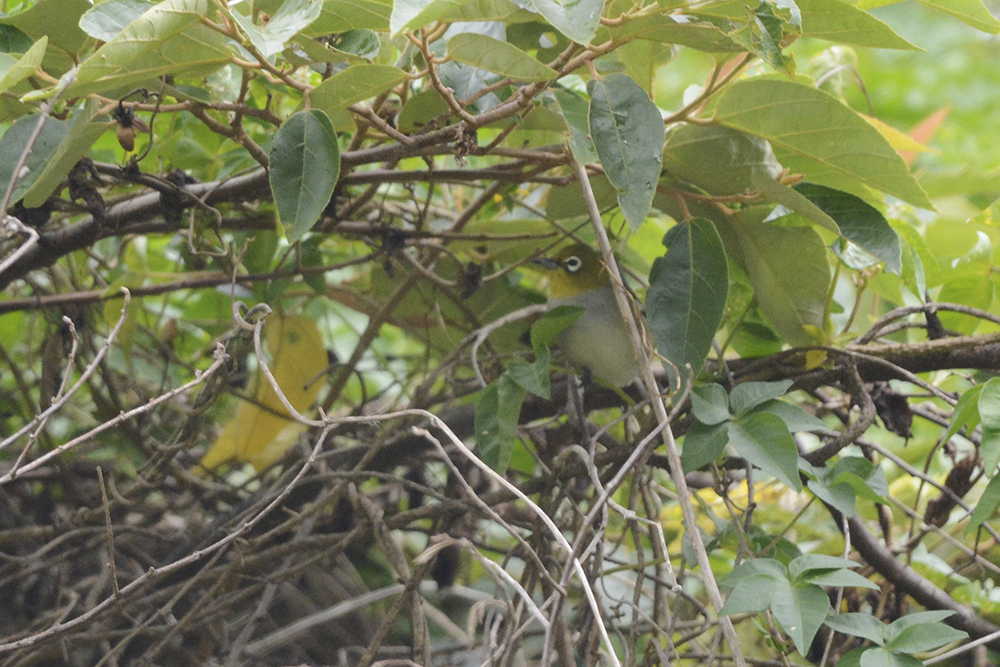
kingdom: Animalia
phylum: Chordata
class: Aves
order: Passeriformes
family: Zosteropidae
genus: Zosterops
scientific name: Zosterops lateralis
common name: Silvereye
